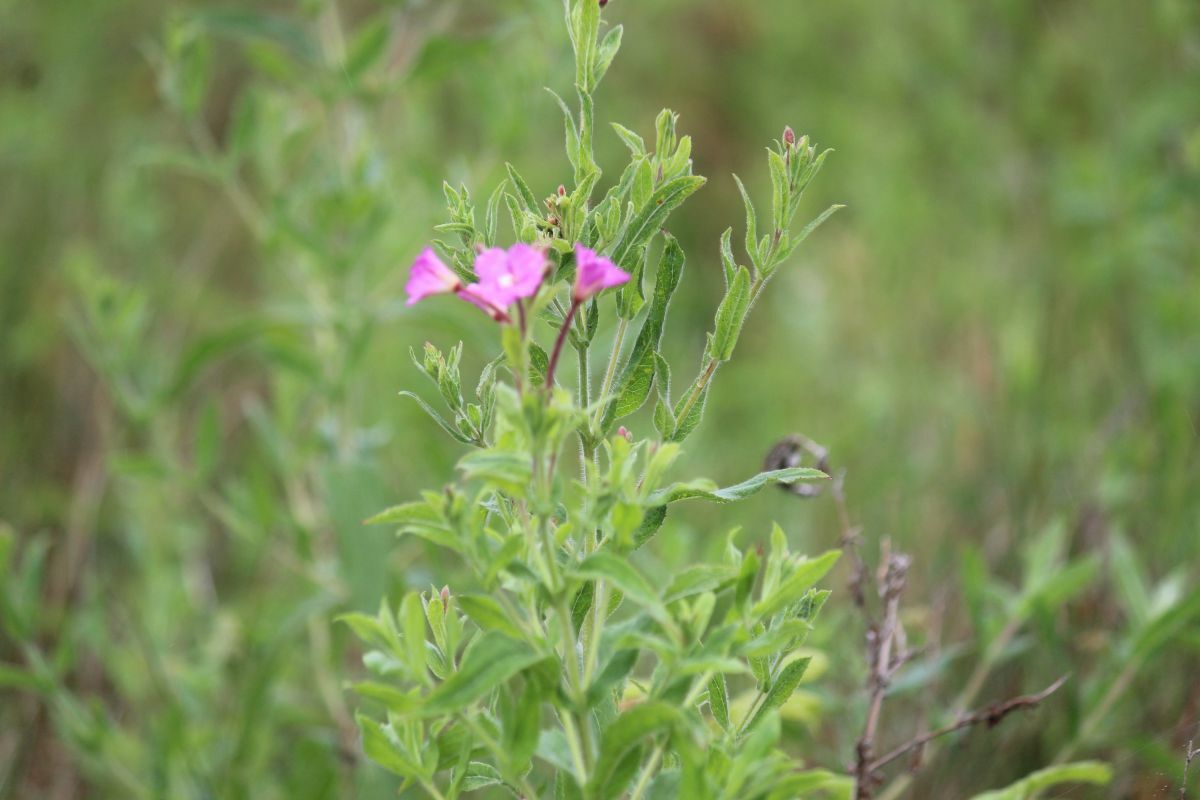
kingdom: Plantae
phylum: Tracheophyta
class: Magnoliopsida
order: Myrtales
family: Onagraceae
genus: Epilobium
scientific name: Epilobium hirsutum
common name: Great willowherb
